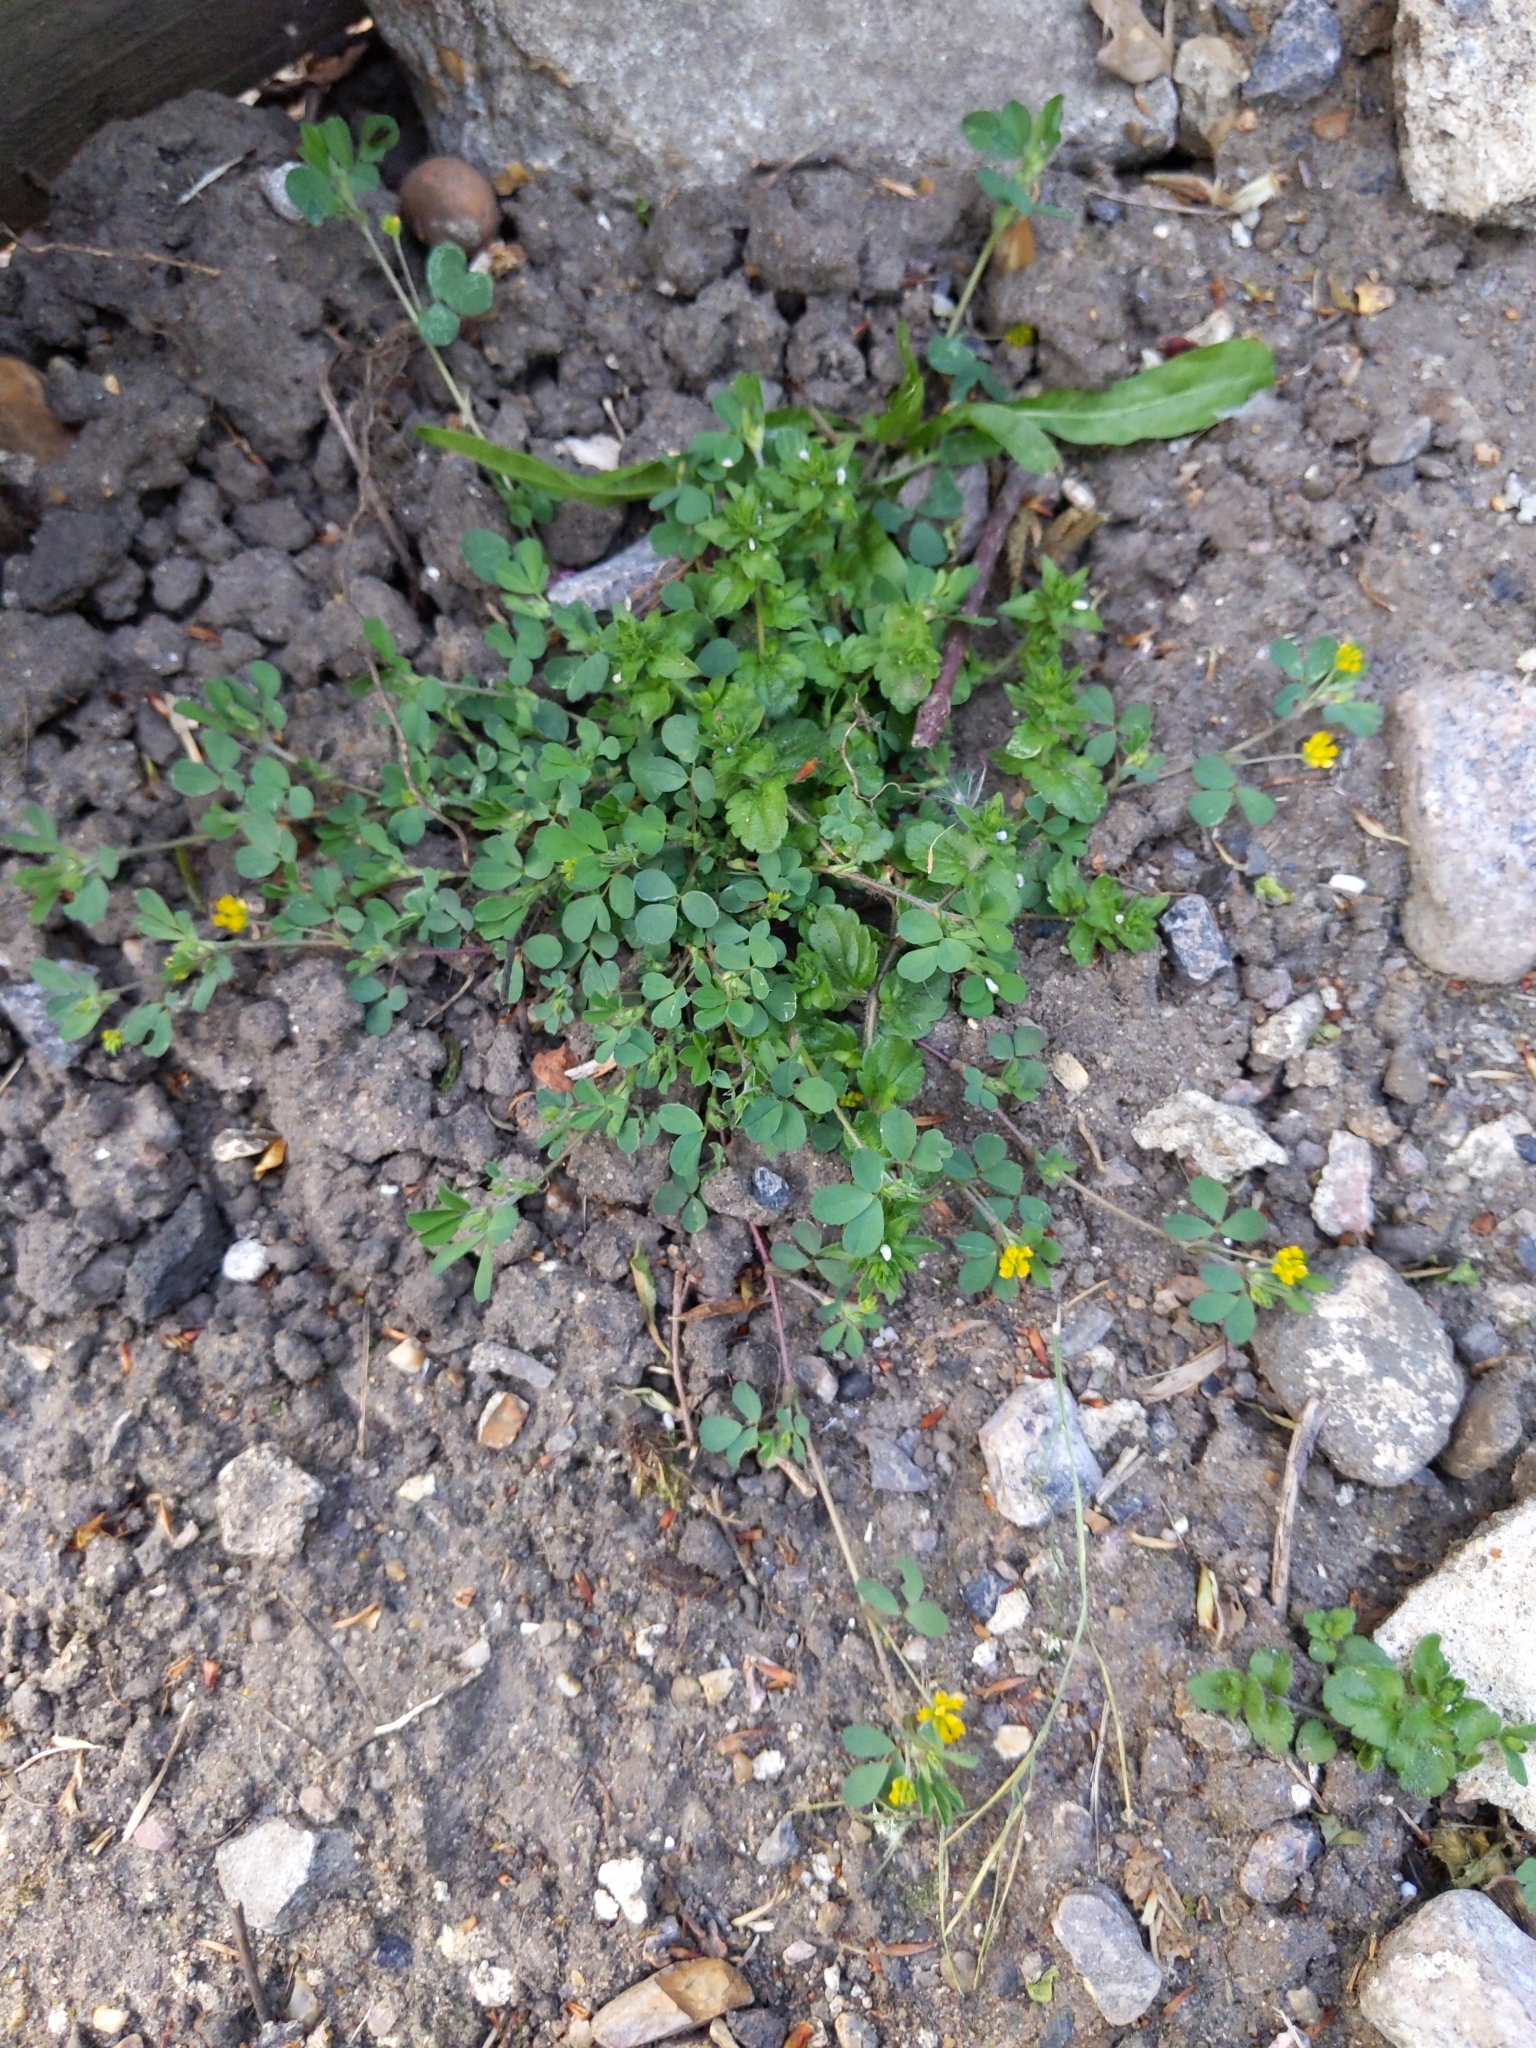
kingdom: Plantae
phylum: Tracheophyta
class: Magnoliopsida
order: Fabales
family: Fabaceae
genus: Trifolium
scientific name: Trifolium dubium
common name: Suckling clover
